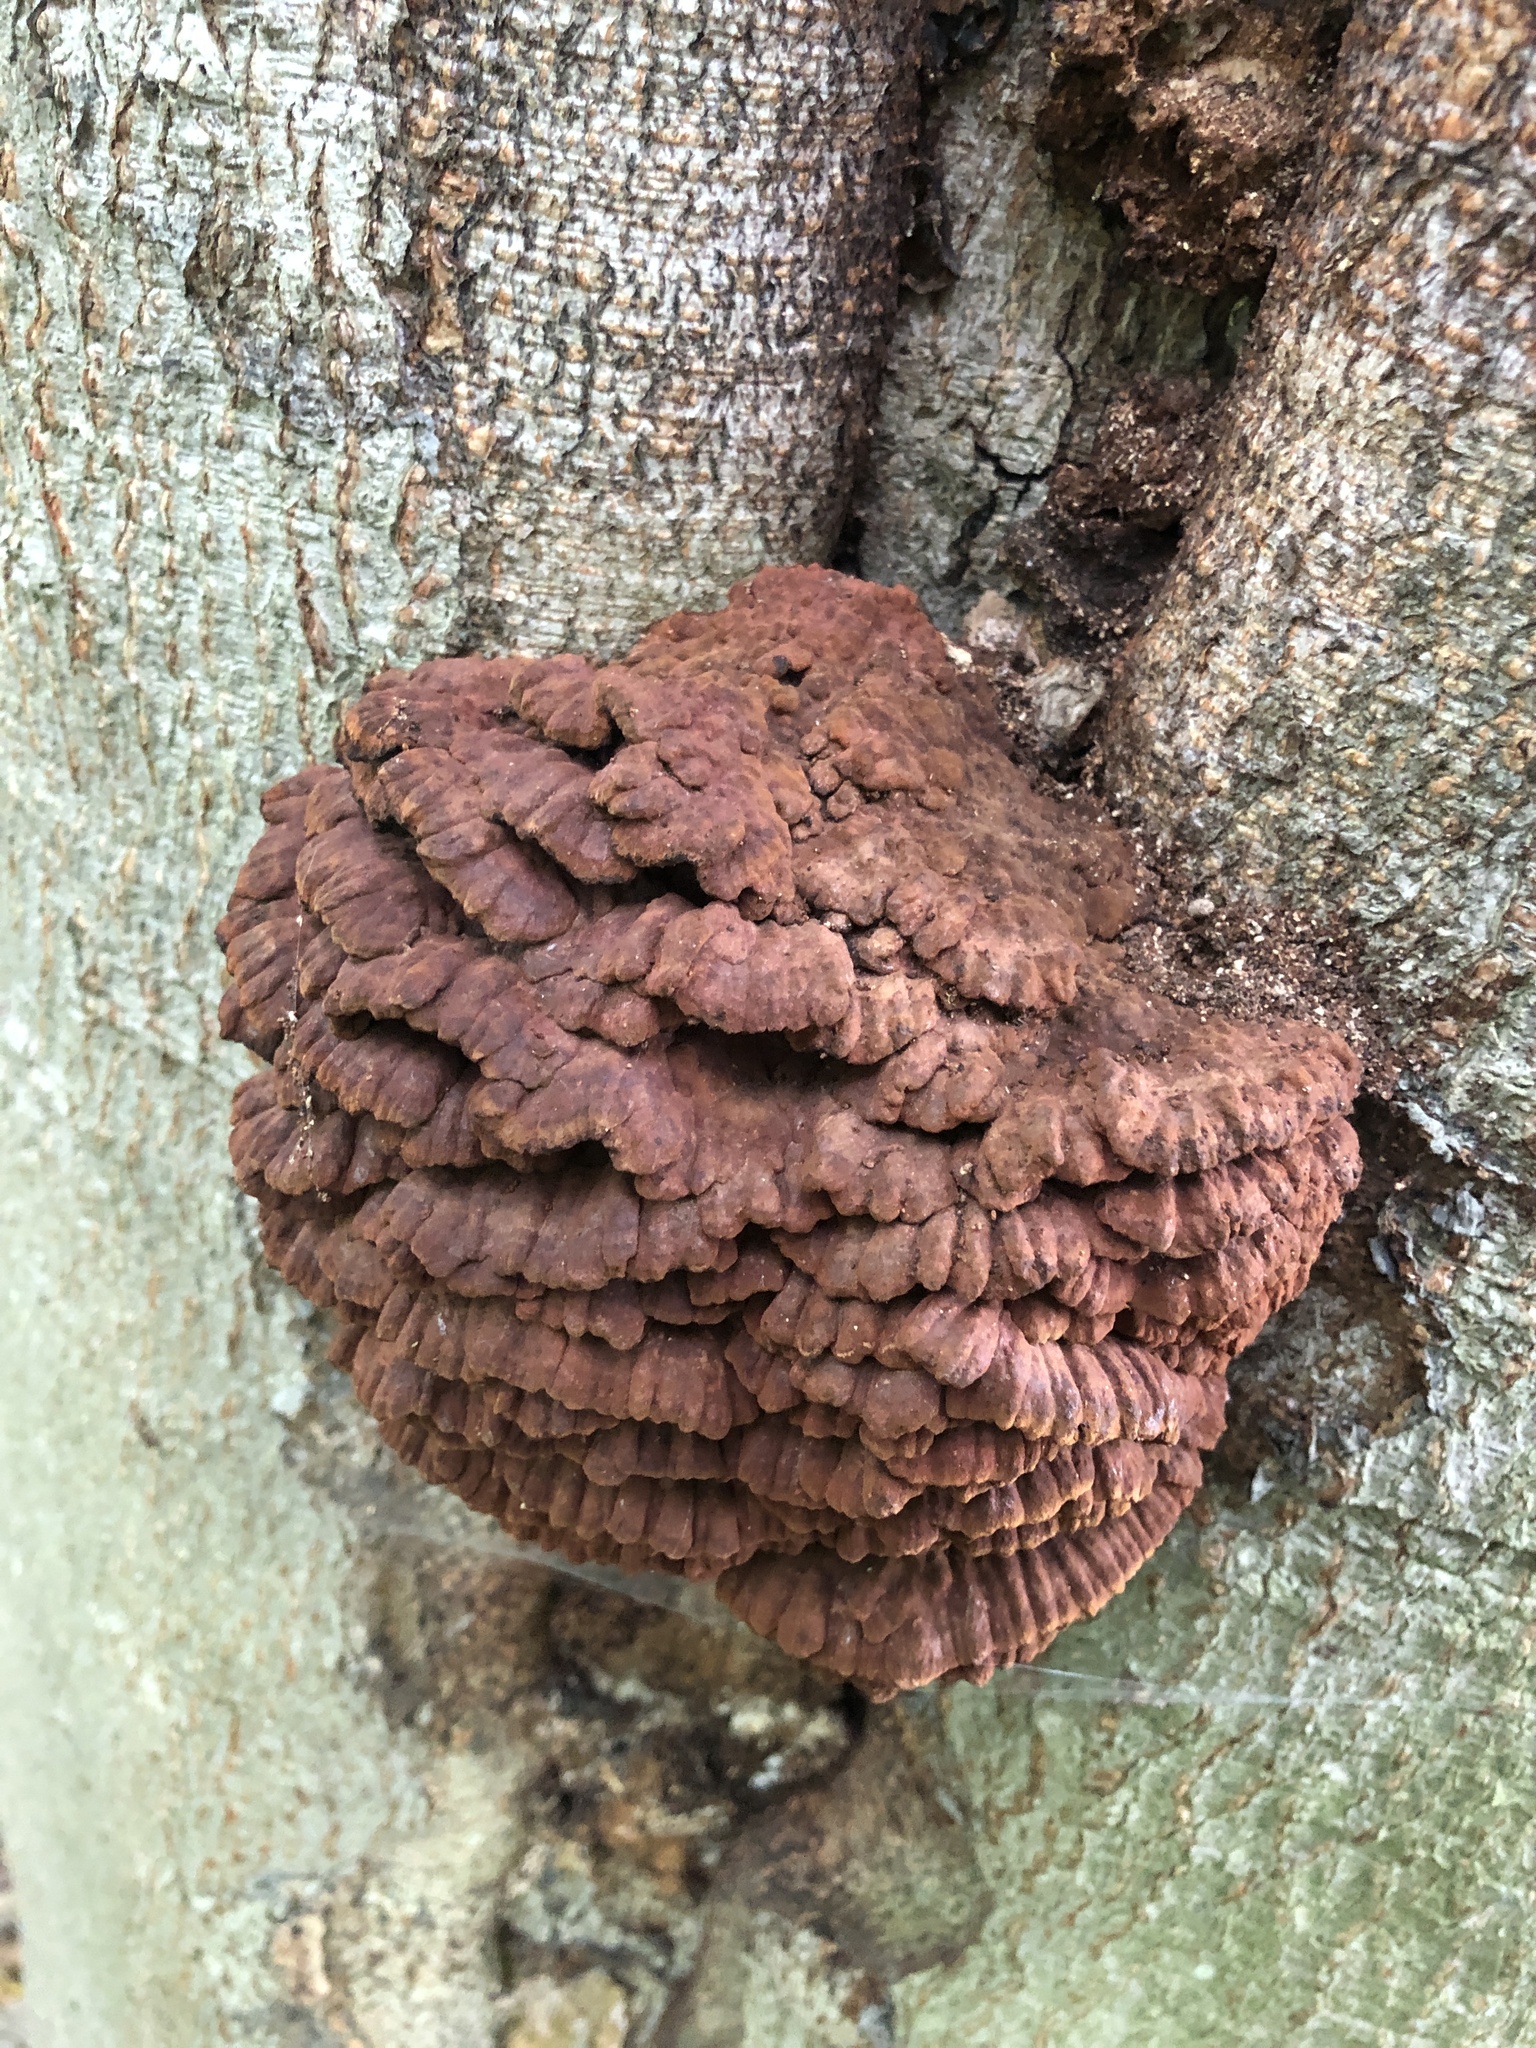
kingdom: Fungi
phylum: Basidiomycota
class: Agaricomycetes
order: Polyporales
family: Polyporaceae
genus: Globifomes
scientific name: Globifomes graveolens
